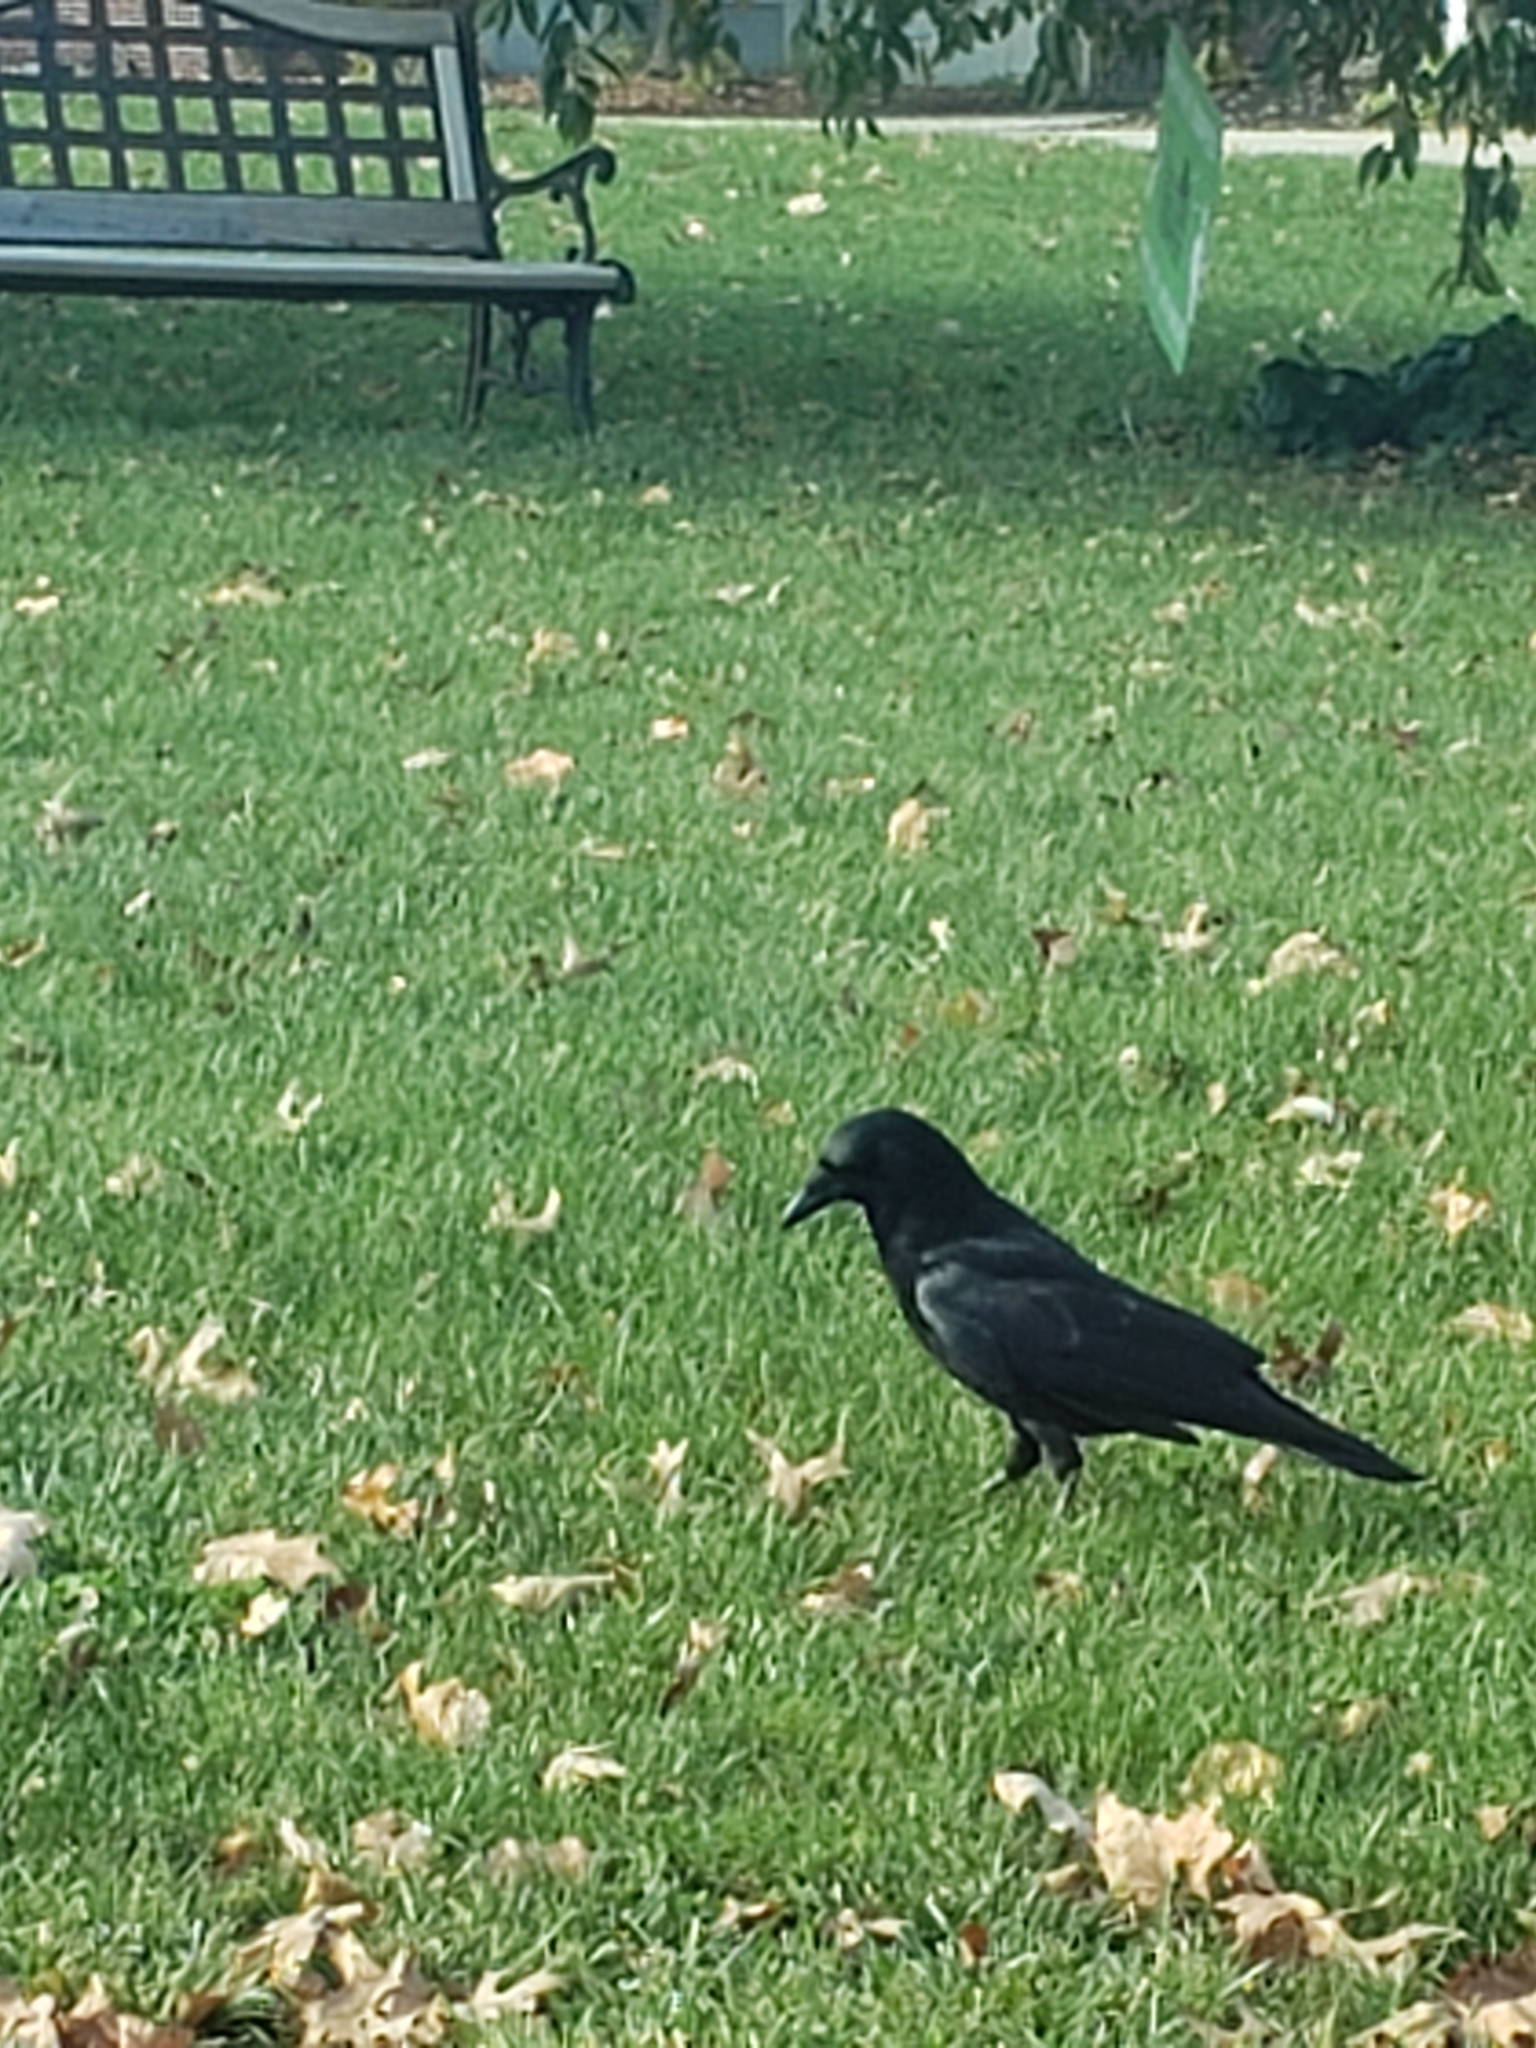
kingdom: Animalia
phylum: Chordata
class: Aves
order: Passeriformes
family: Corvidae
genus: Corvus
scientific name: Corvus brachyrhynchos
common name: American crow
